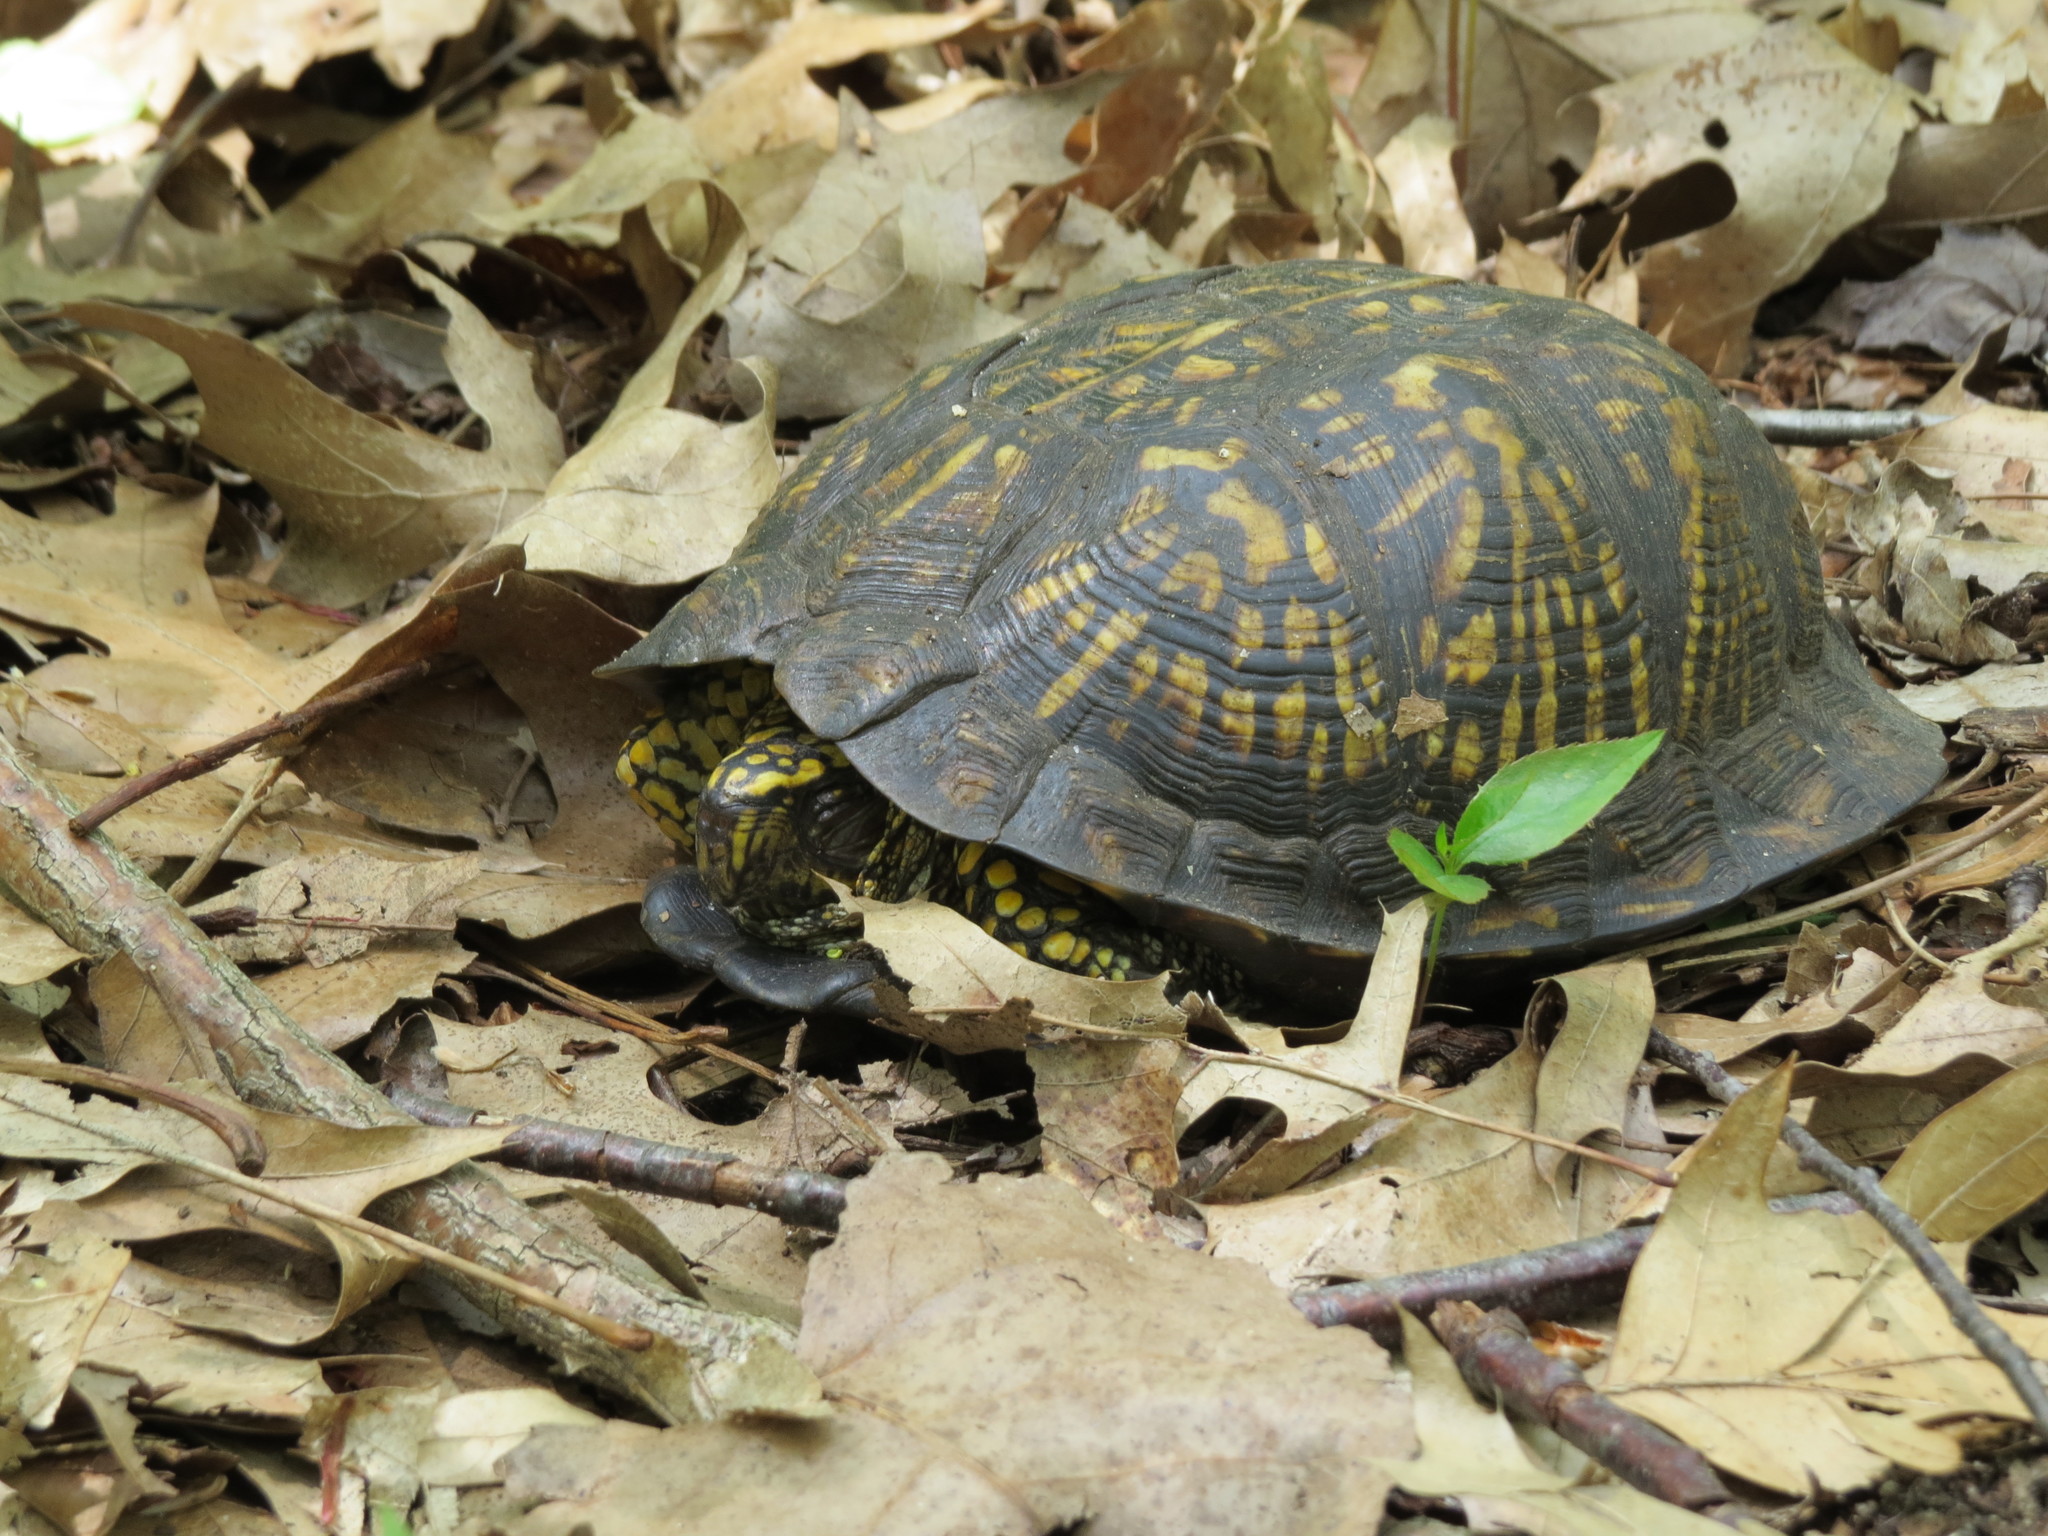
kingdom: Animalia
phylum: Chordata
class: Testudines
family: Emydidae
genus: Terrapene
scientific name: Terrapene carolina
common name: Common box turtle
